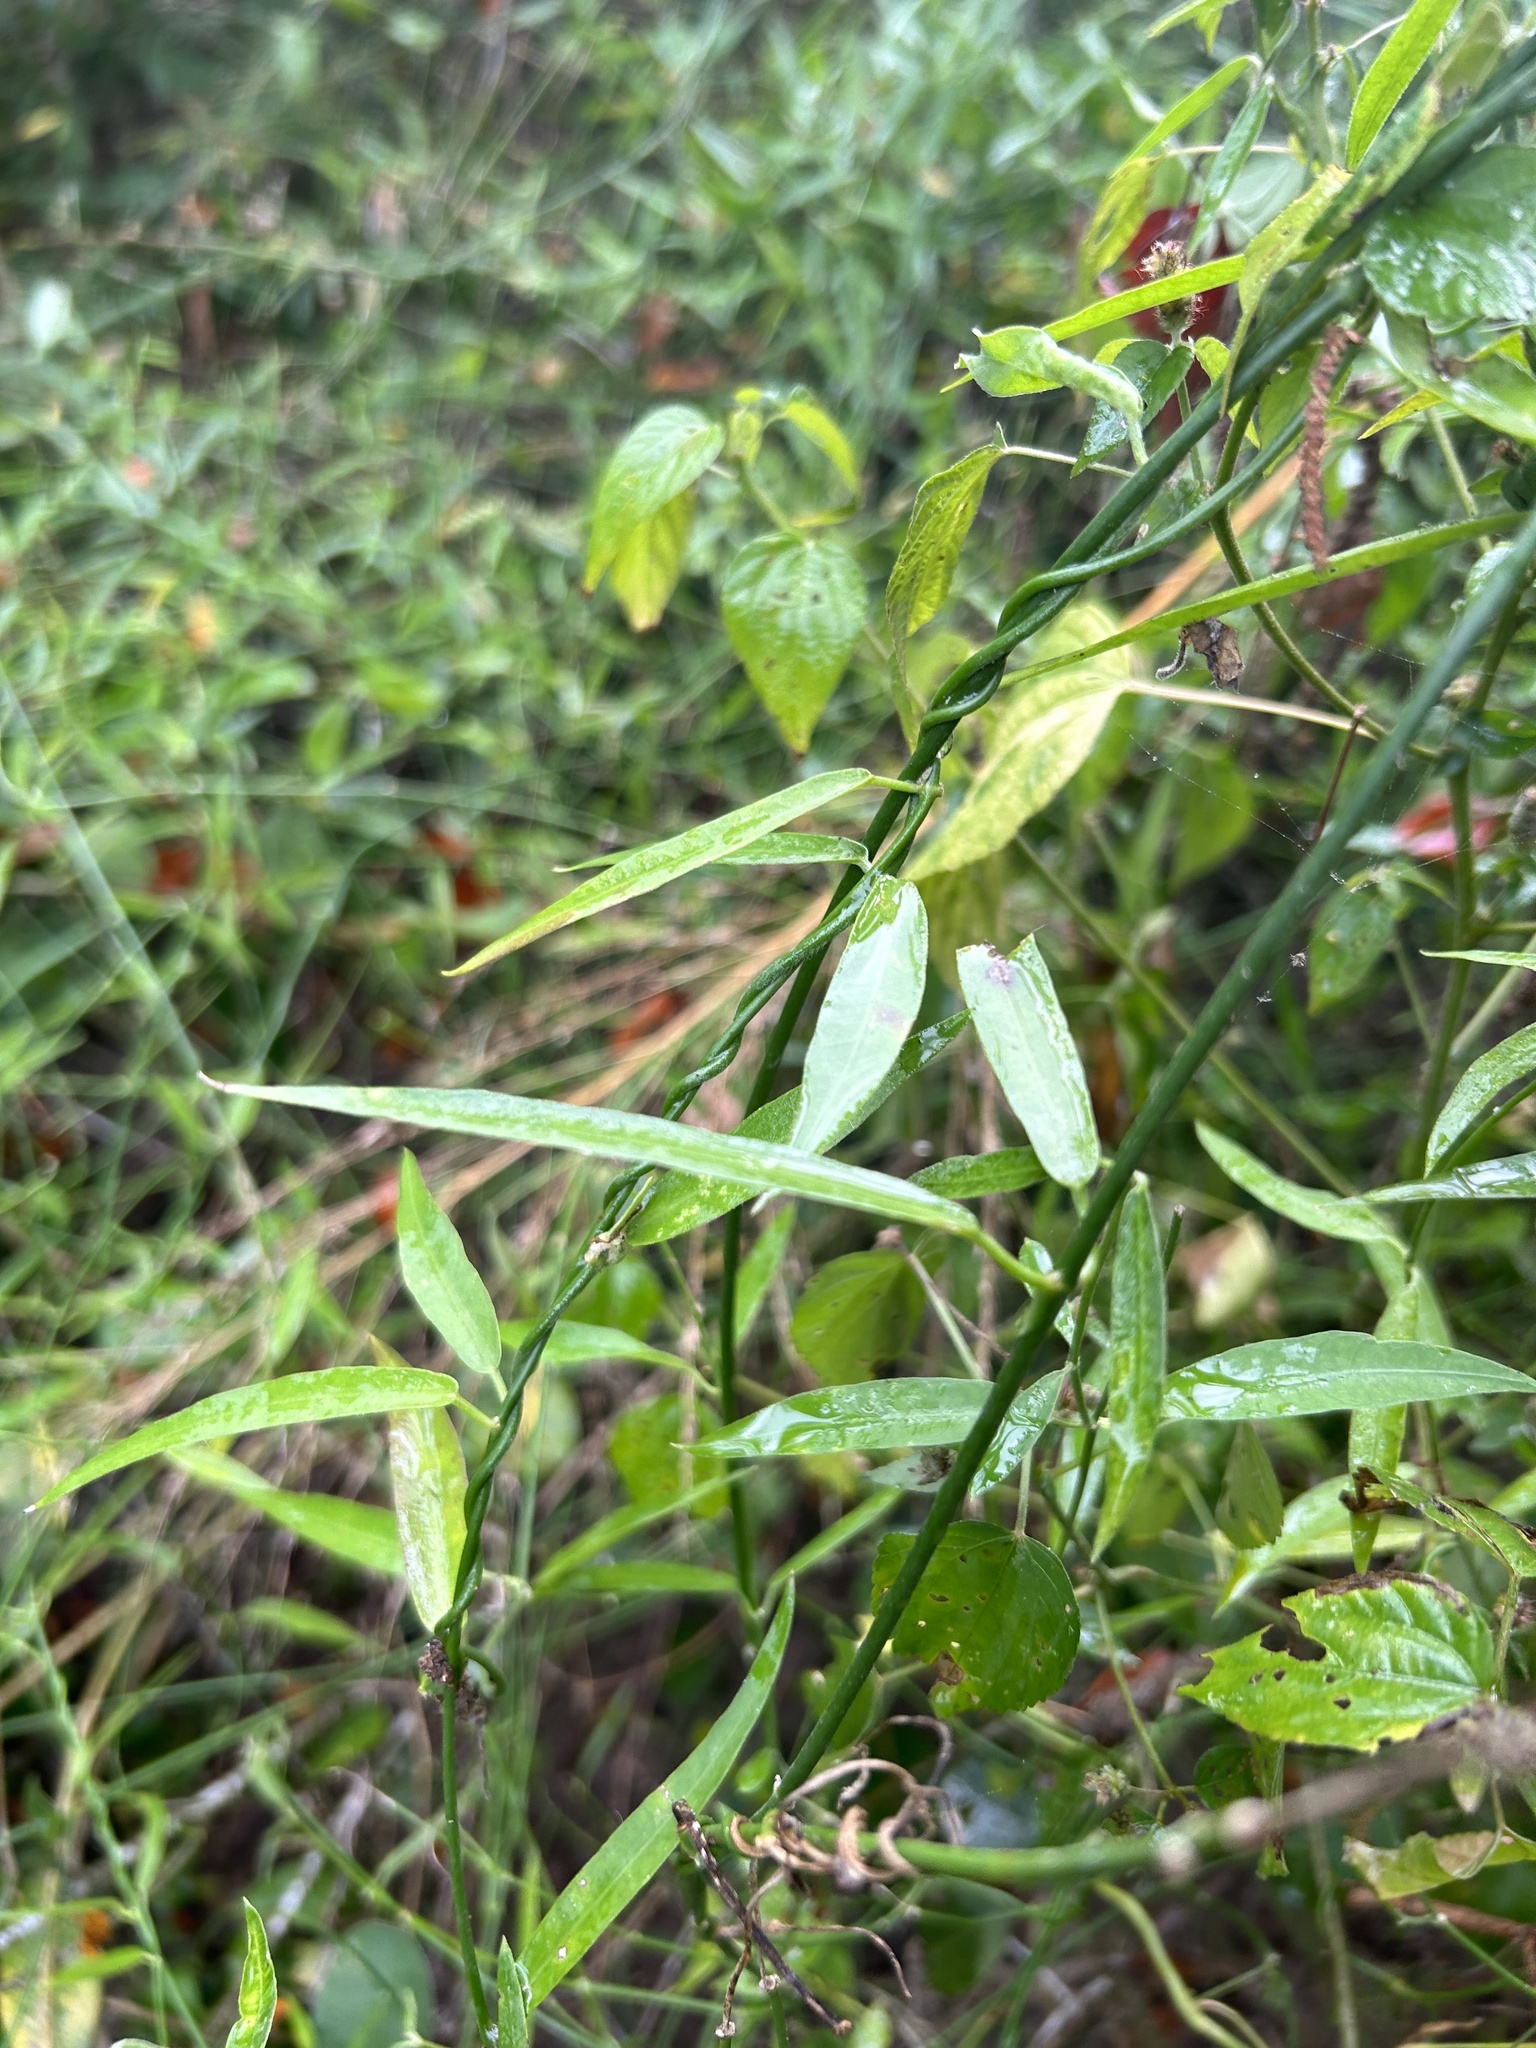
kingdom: Plantae
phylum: Tracheophyta
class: Magnoliopsida
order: Gentianales
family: Apocynaceae
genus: Funastrum
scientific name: Funastrum clausum
